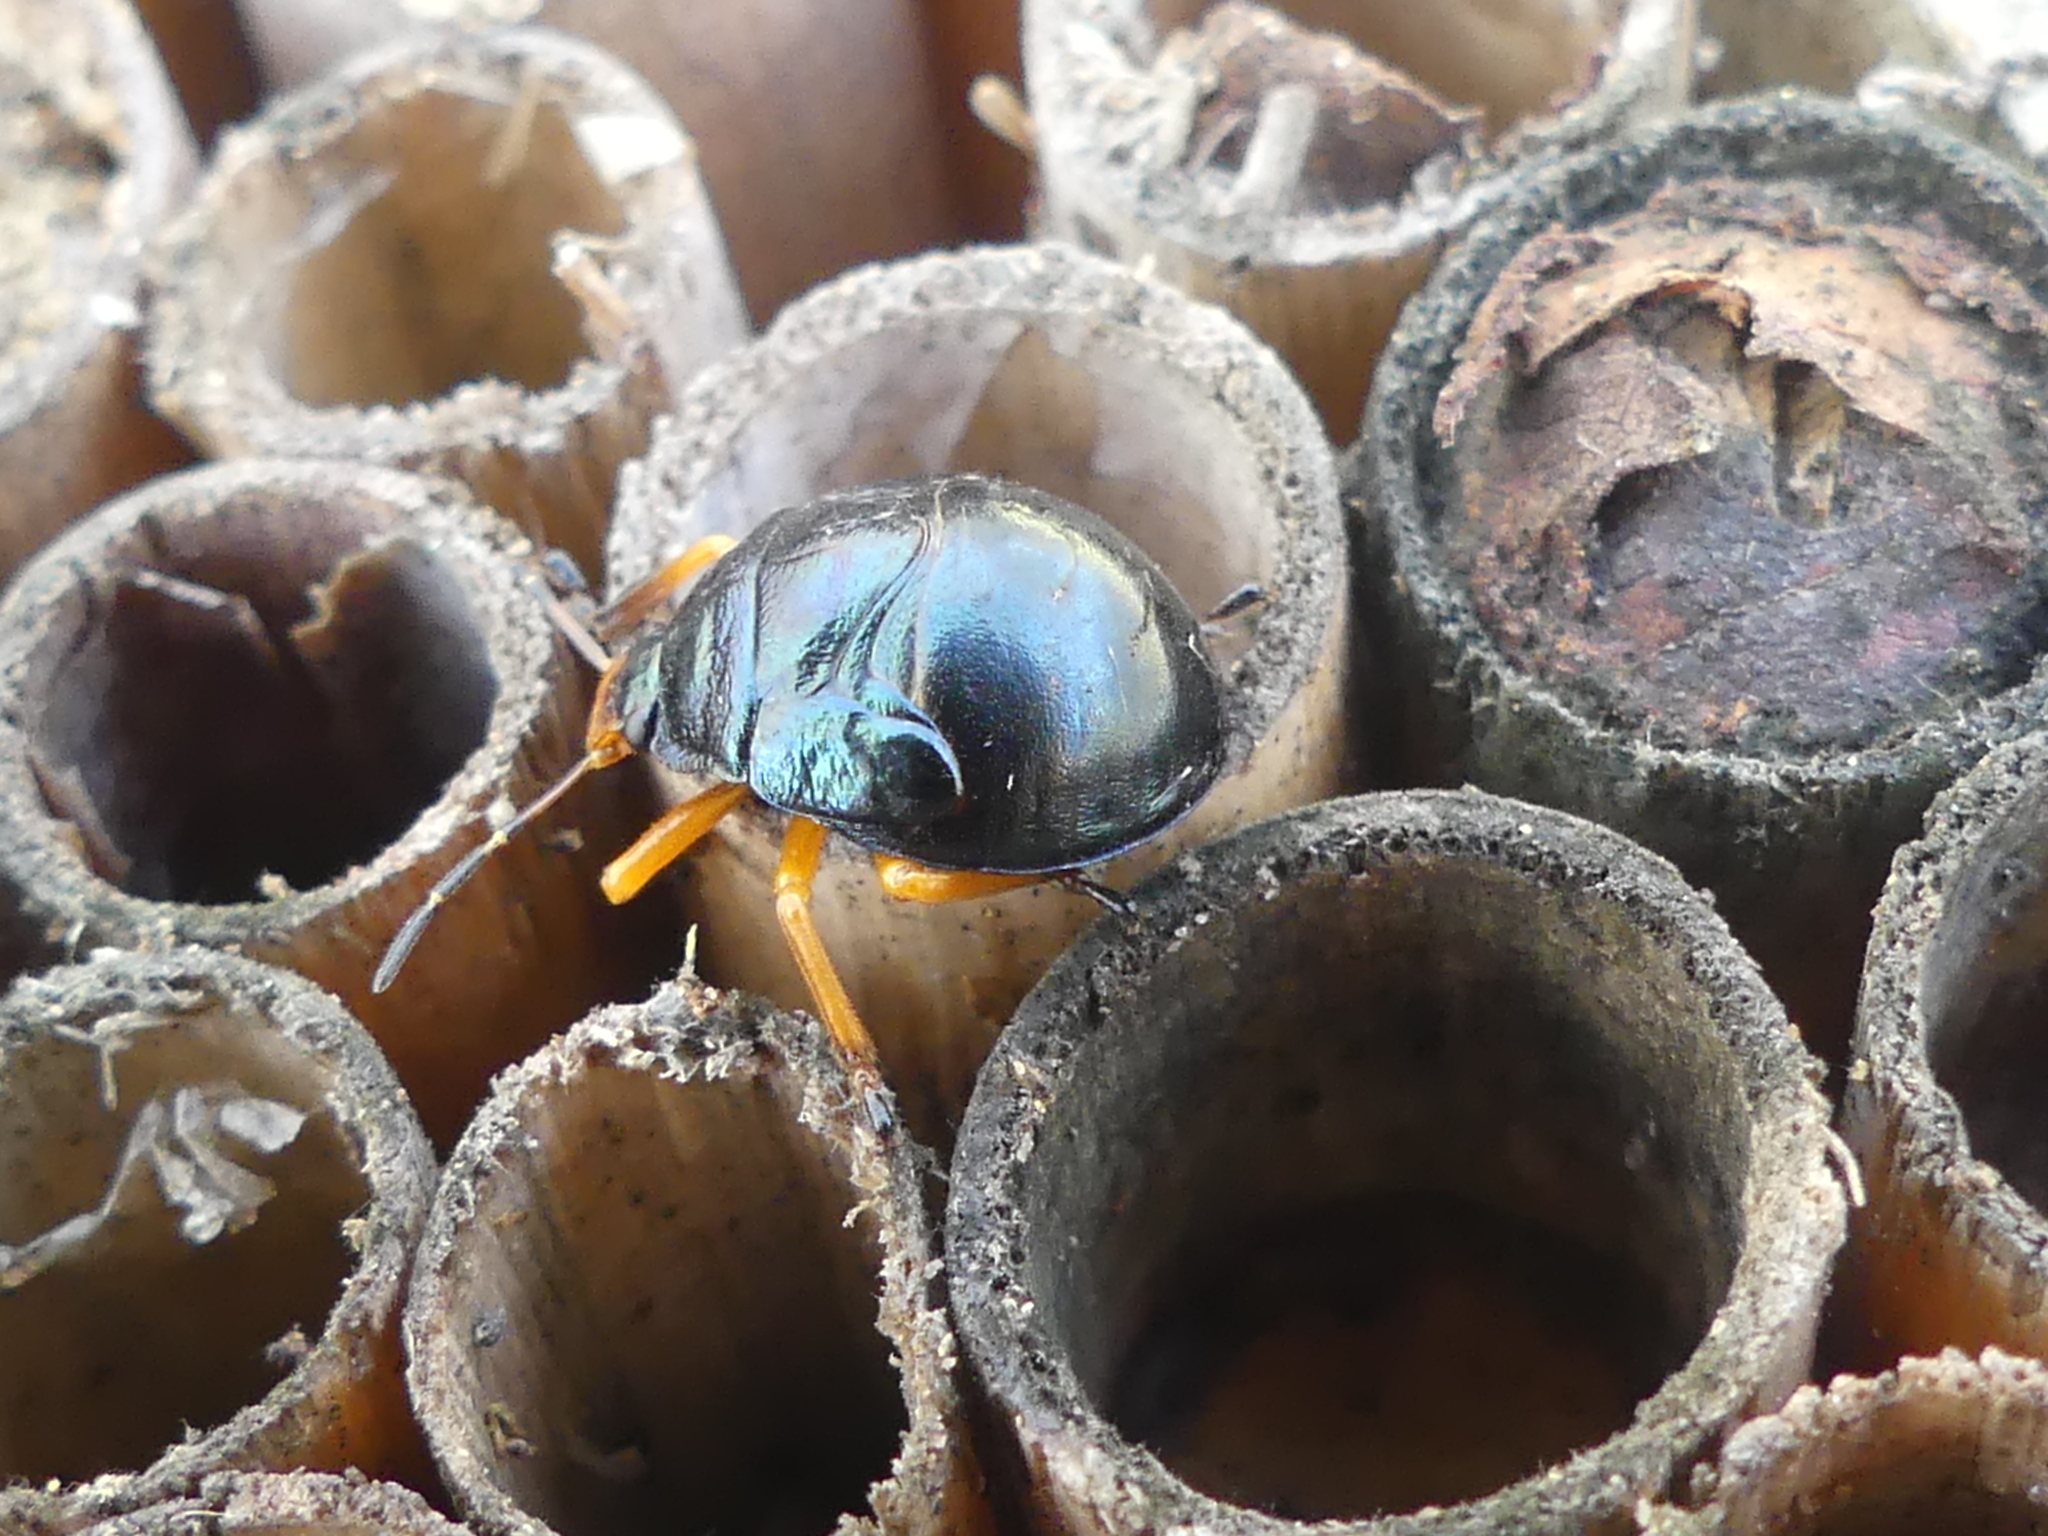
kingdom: Animalia
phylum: Arthropoda
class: Insecta
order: Hemiptera
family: Pentatomidae
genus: Stiretrus
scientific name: Stiretrus anchorago
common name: Anchor stink bug
